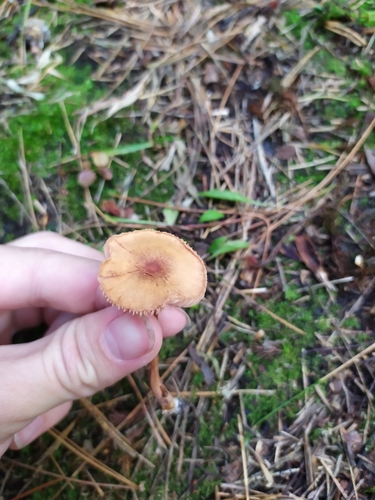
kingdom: Fungi
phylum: Basidiomycota
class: Agaricomycetes
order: Agaricales
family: Hydnangiaceae
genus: Laccaria
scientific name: Laccaria
